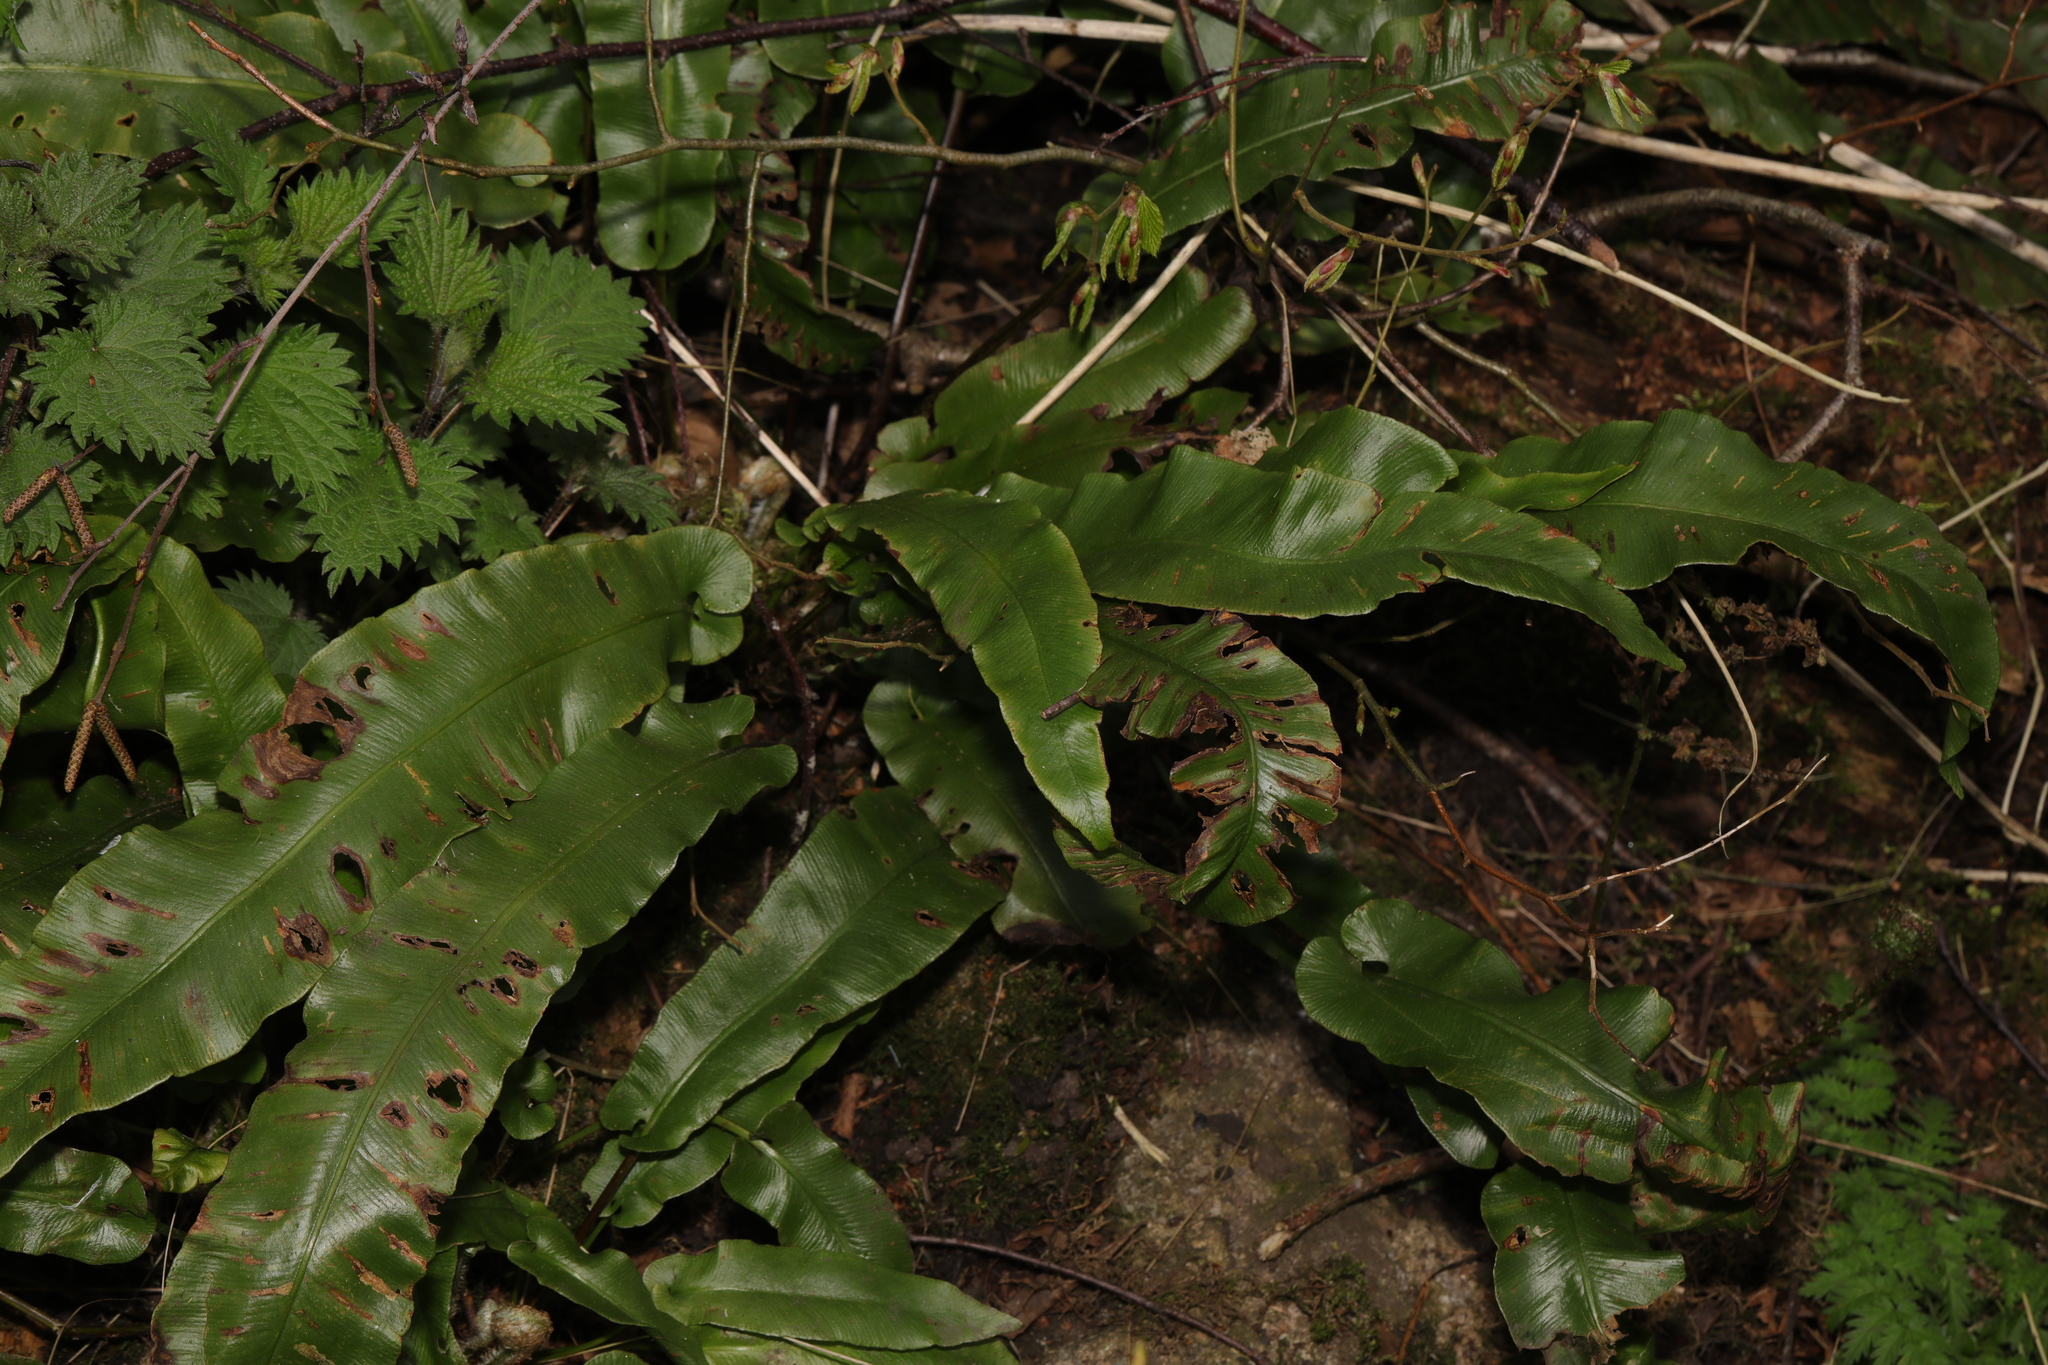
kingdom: Plantae
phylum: Tracheophyta
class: Polypodiopsida
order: Polypodiales
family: Aspleniaceae
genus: Asplenium
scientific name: Asplenium scolopendrium
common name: Hart's-tongue fern
